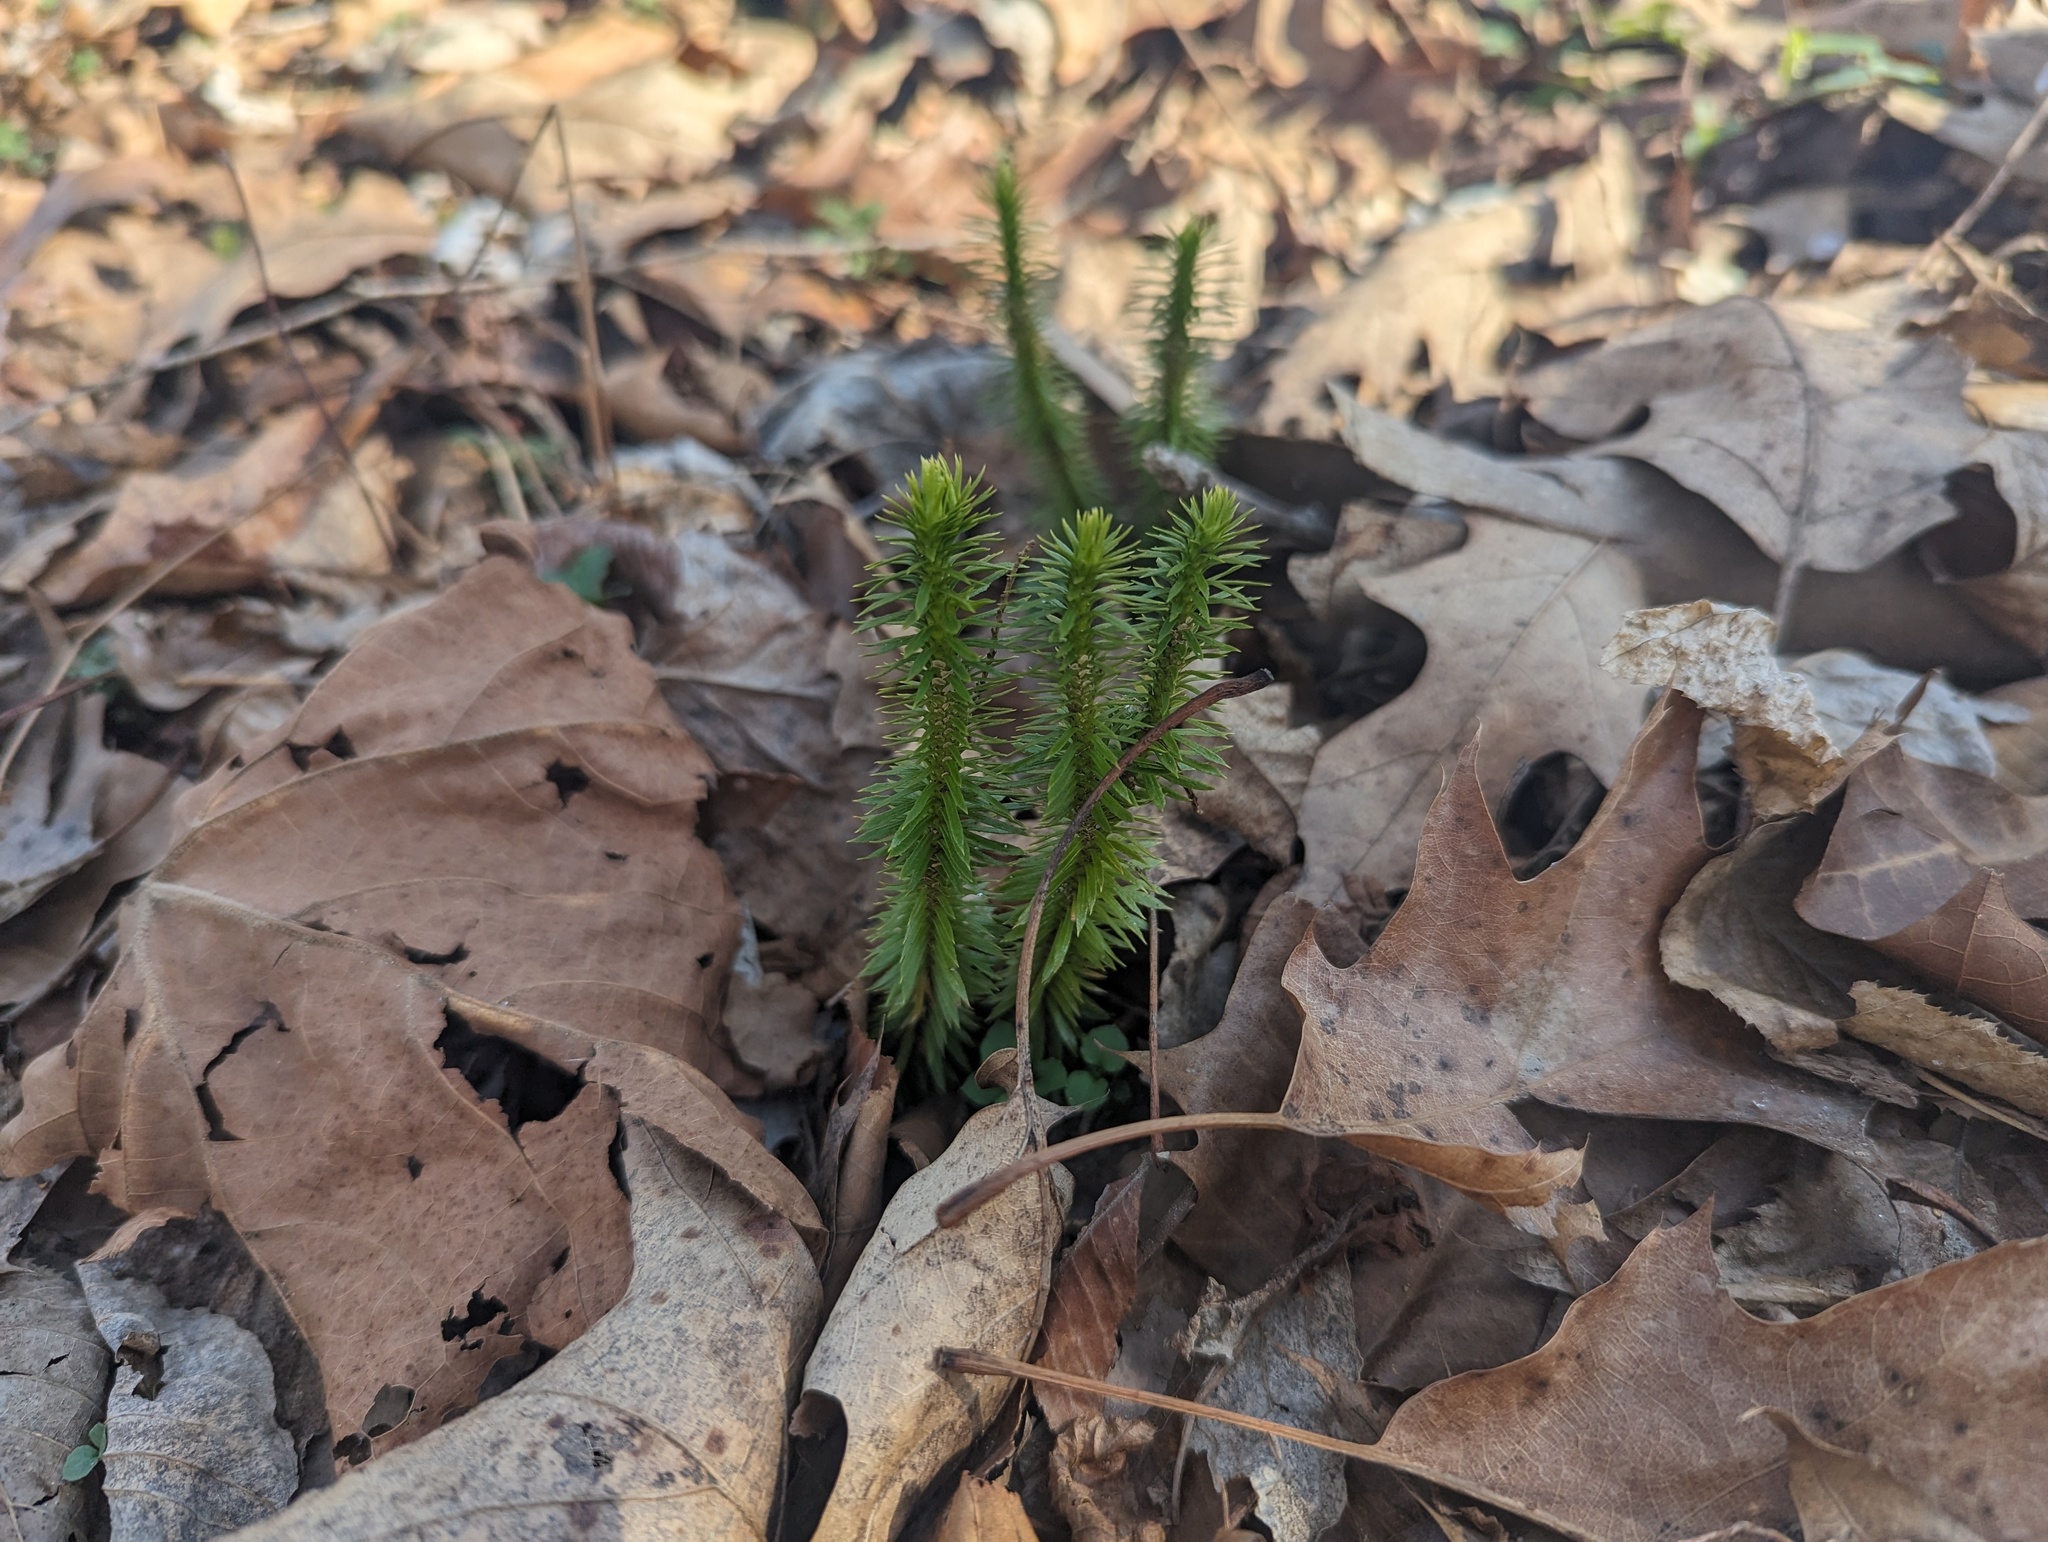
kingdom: Plantae
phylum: Tracheophyta
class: Lycopodiopsida
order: Lycopodiales
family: Lycopodiaceae
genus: Huperzia
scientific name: Huperzia lucidula
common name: Shining clubmoss
